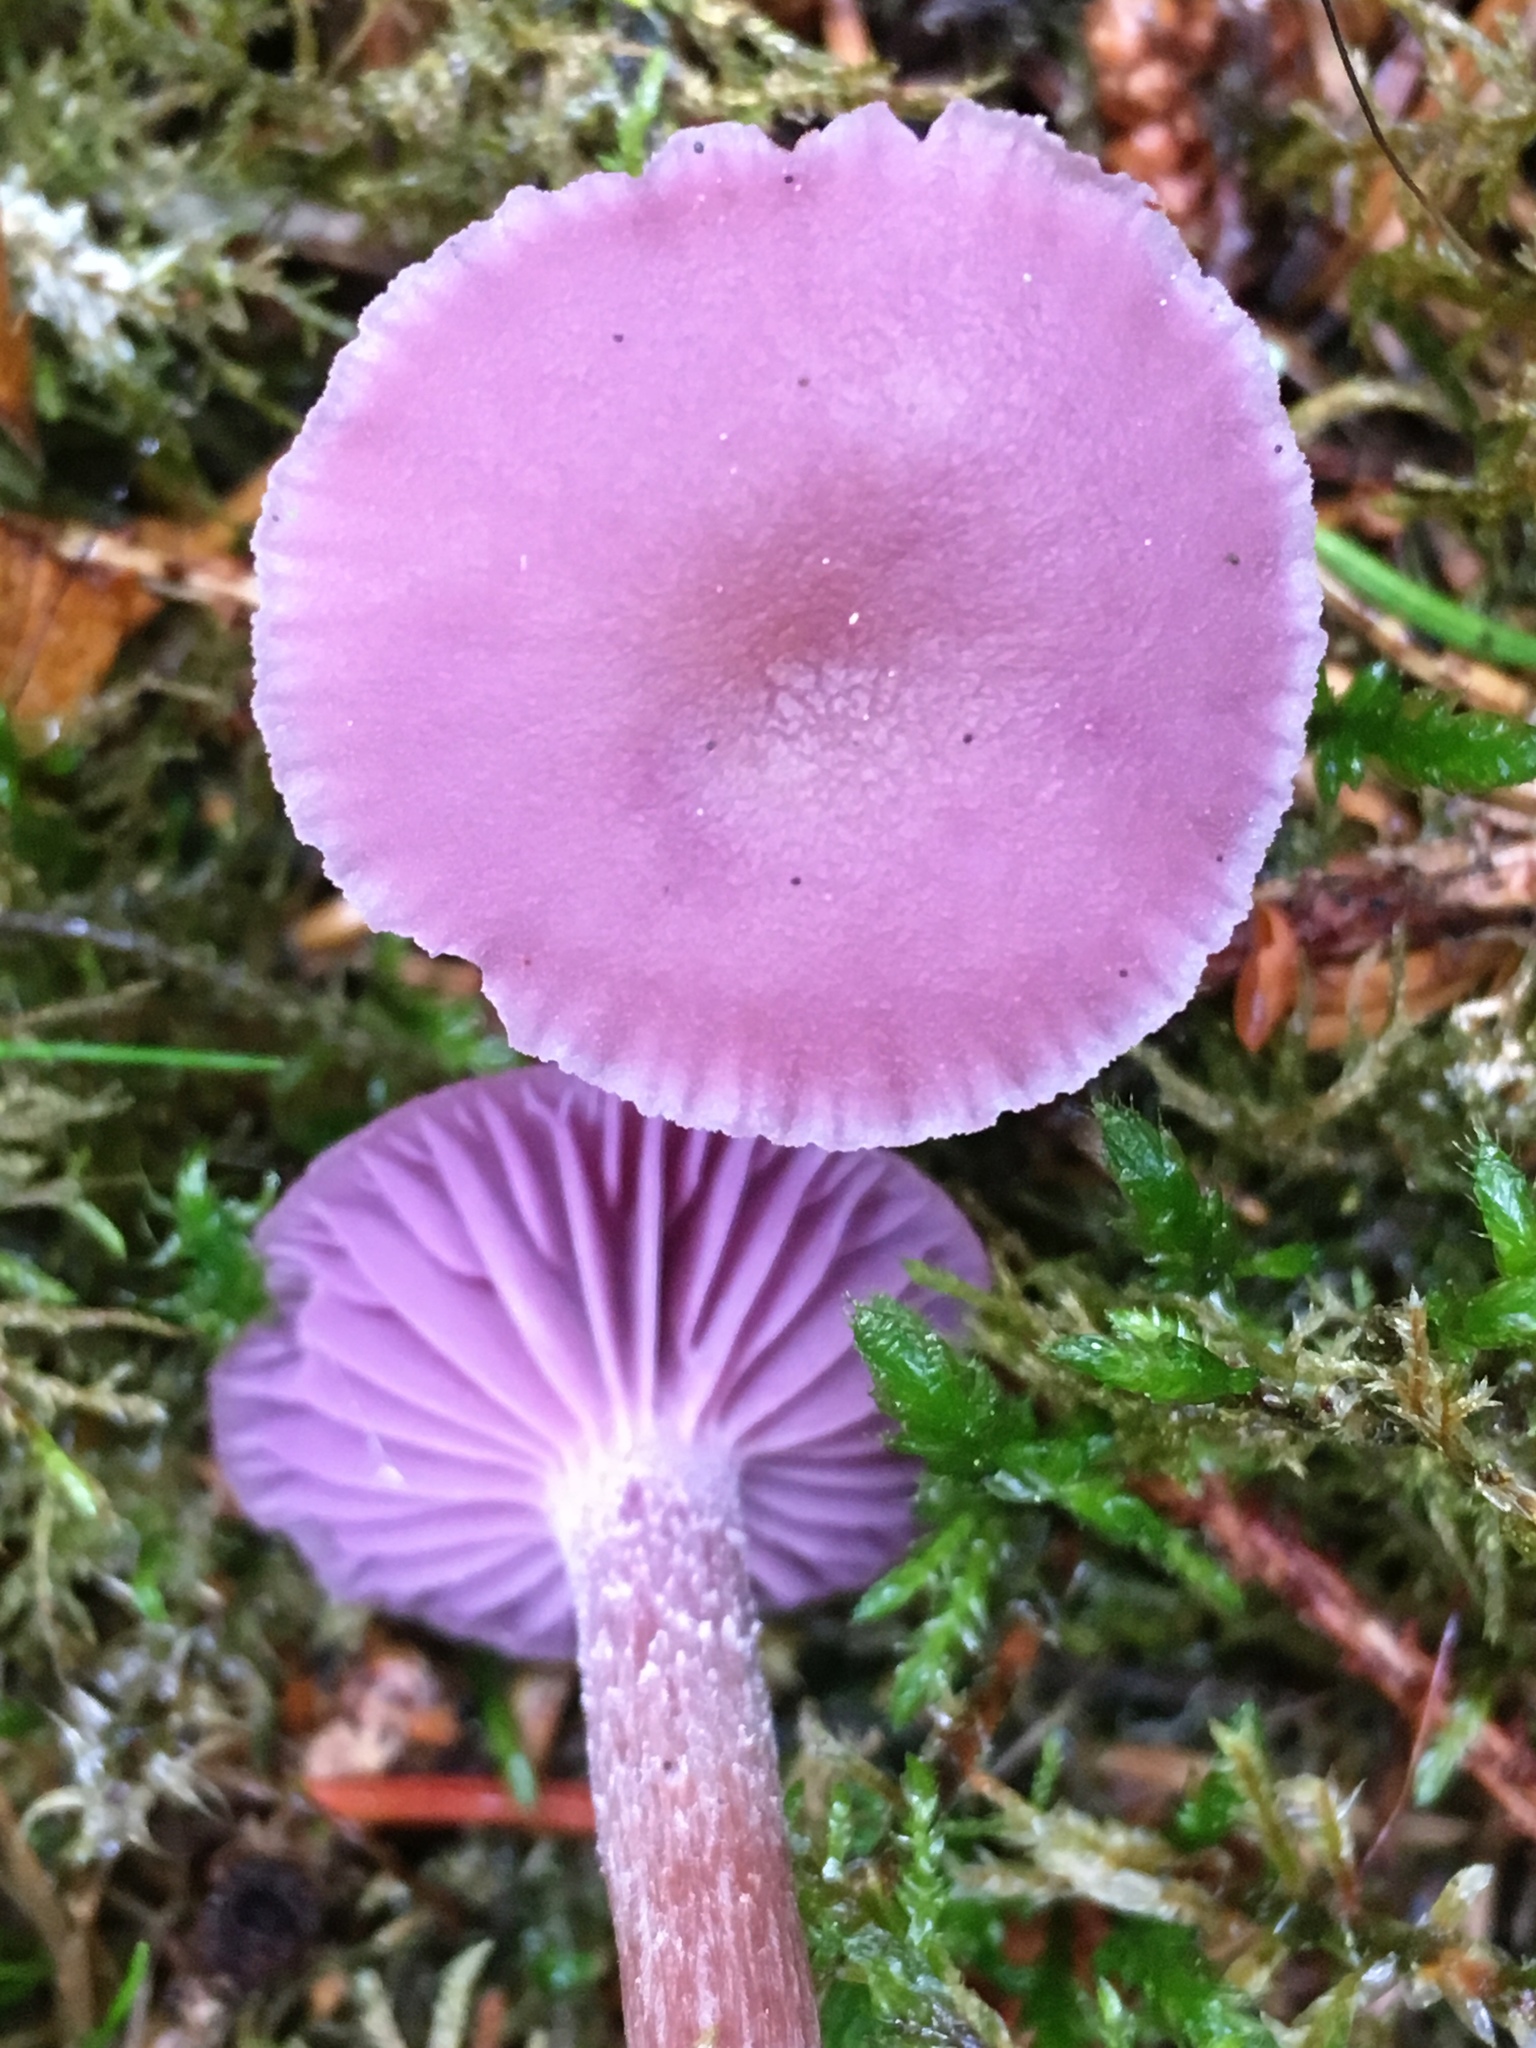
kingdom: Fungi
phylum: Basidiomycota
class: Agaricomycetes
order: Agaricales
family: Hydnangiaceae
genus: Laccaria
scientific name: Laccaria amethystina
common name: Amethyst deceiver
